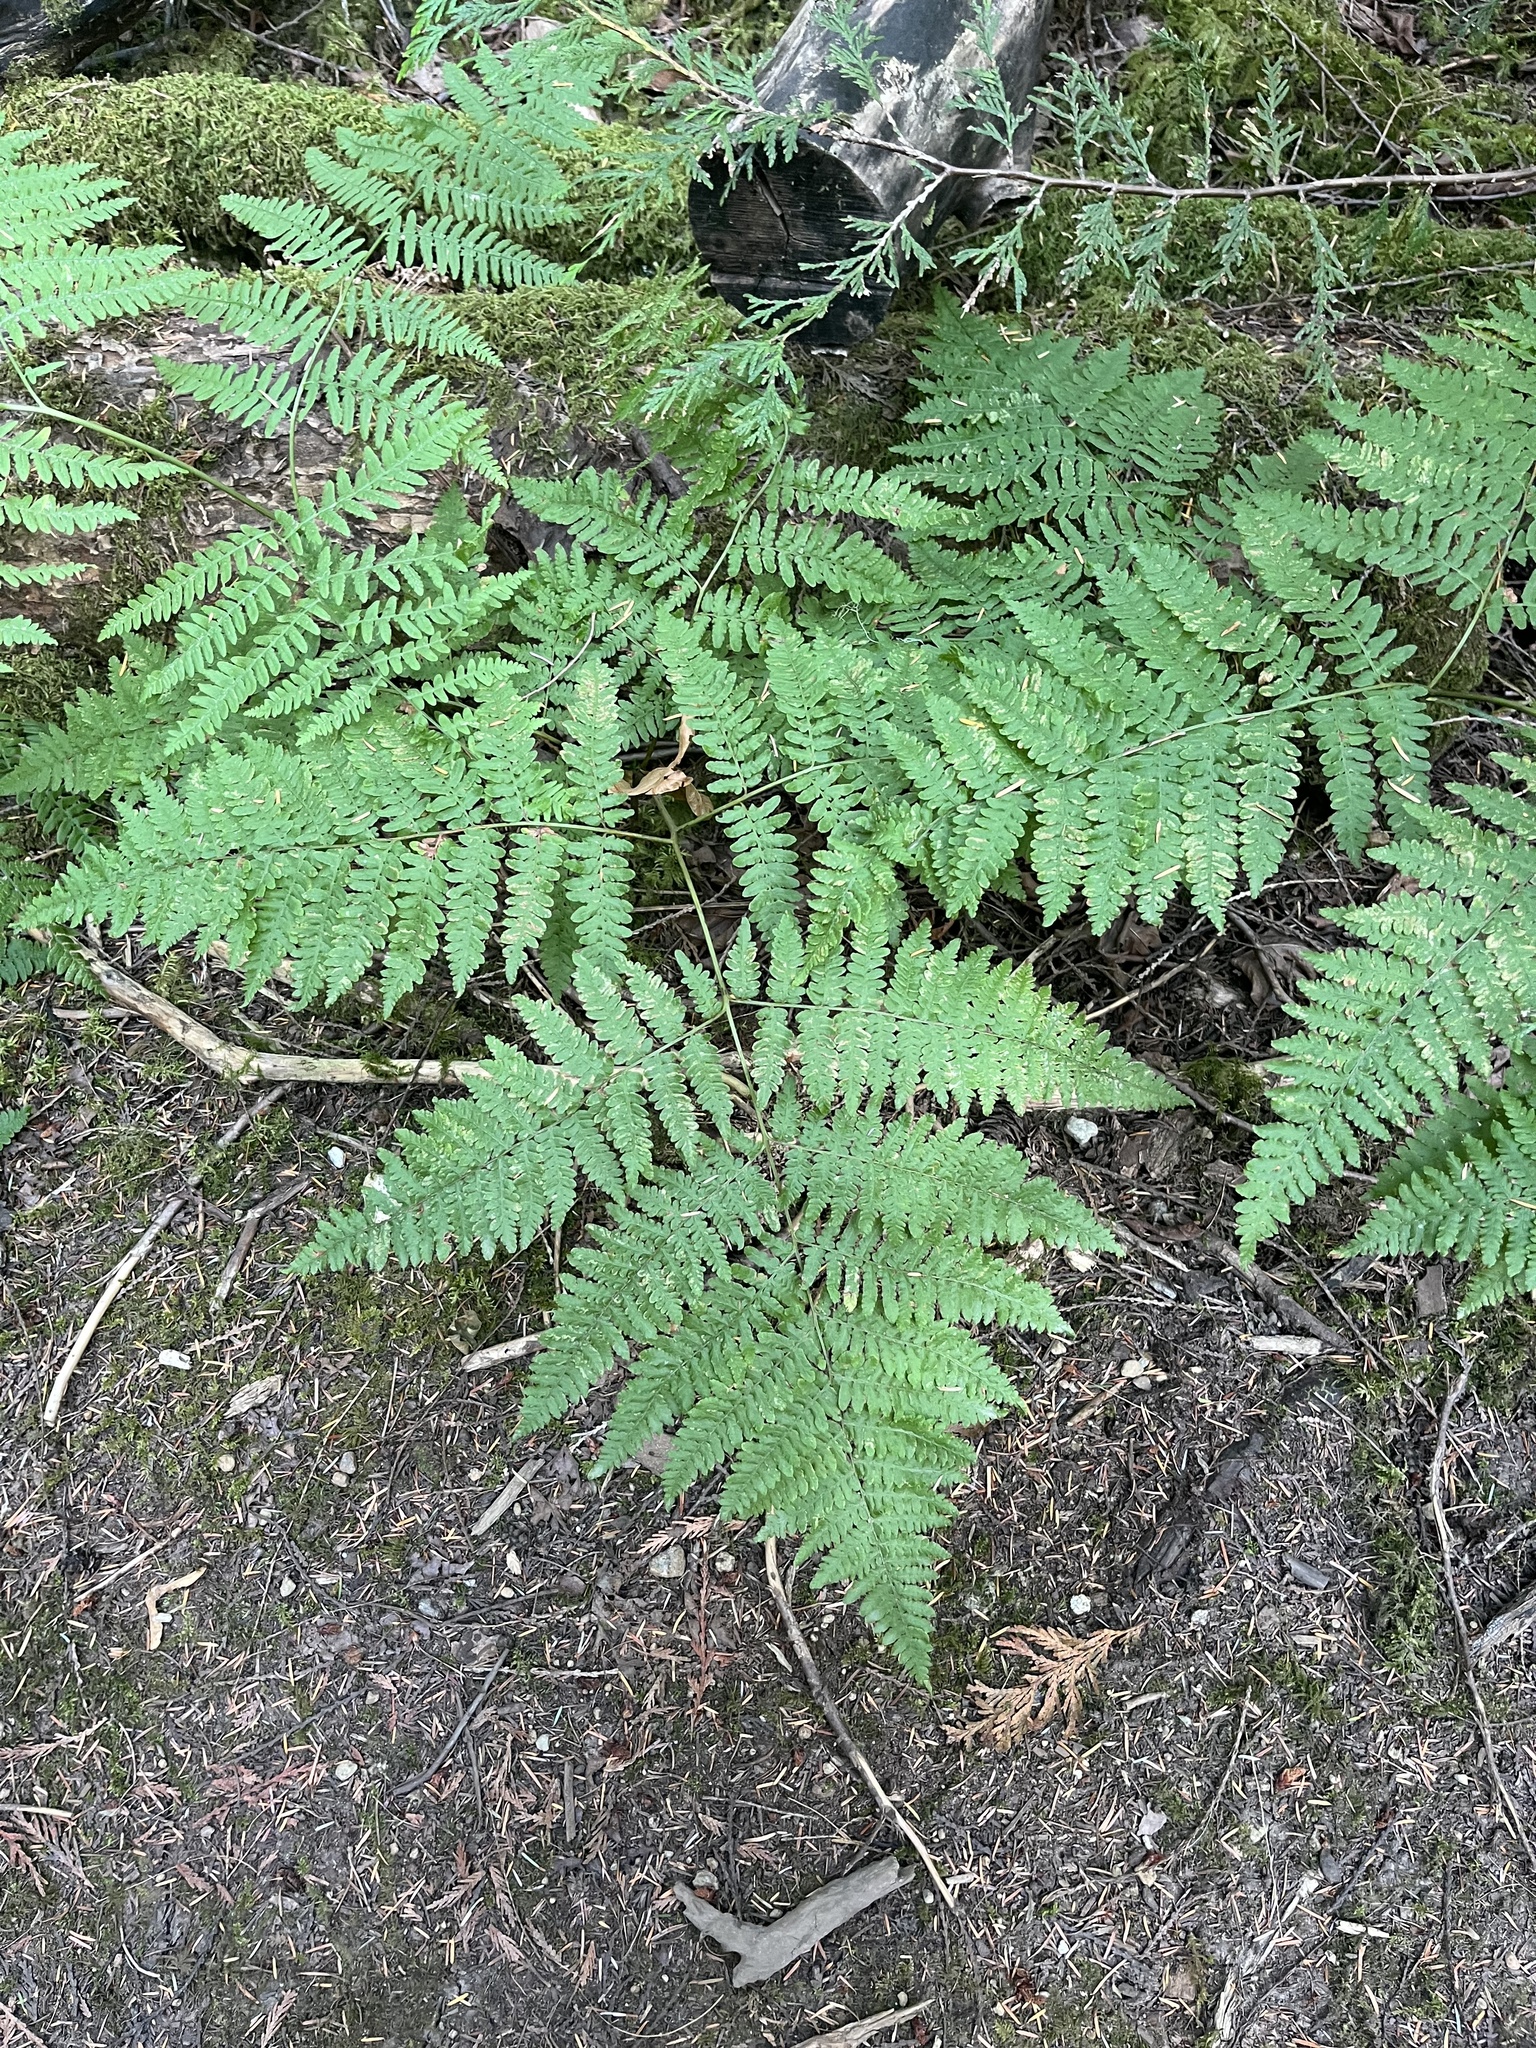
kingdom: Plantae
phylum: Tracheophyta
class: Polypodiopsida
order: Polypodiales
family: Dennstaedtiaceae
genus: Pteridium
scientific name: Pteridium aquilinum
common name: Bracken
